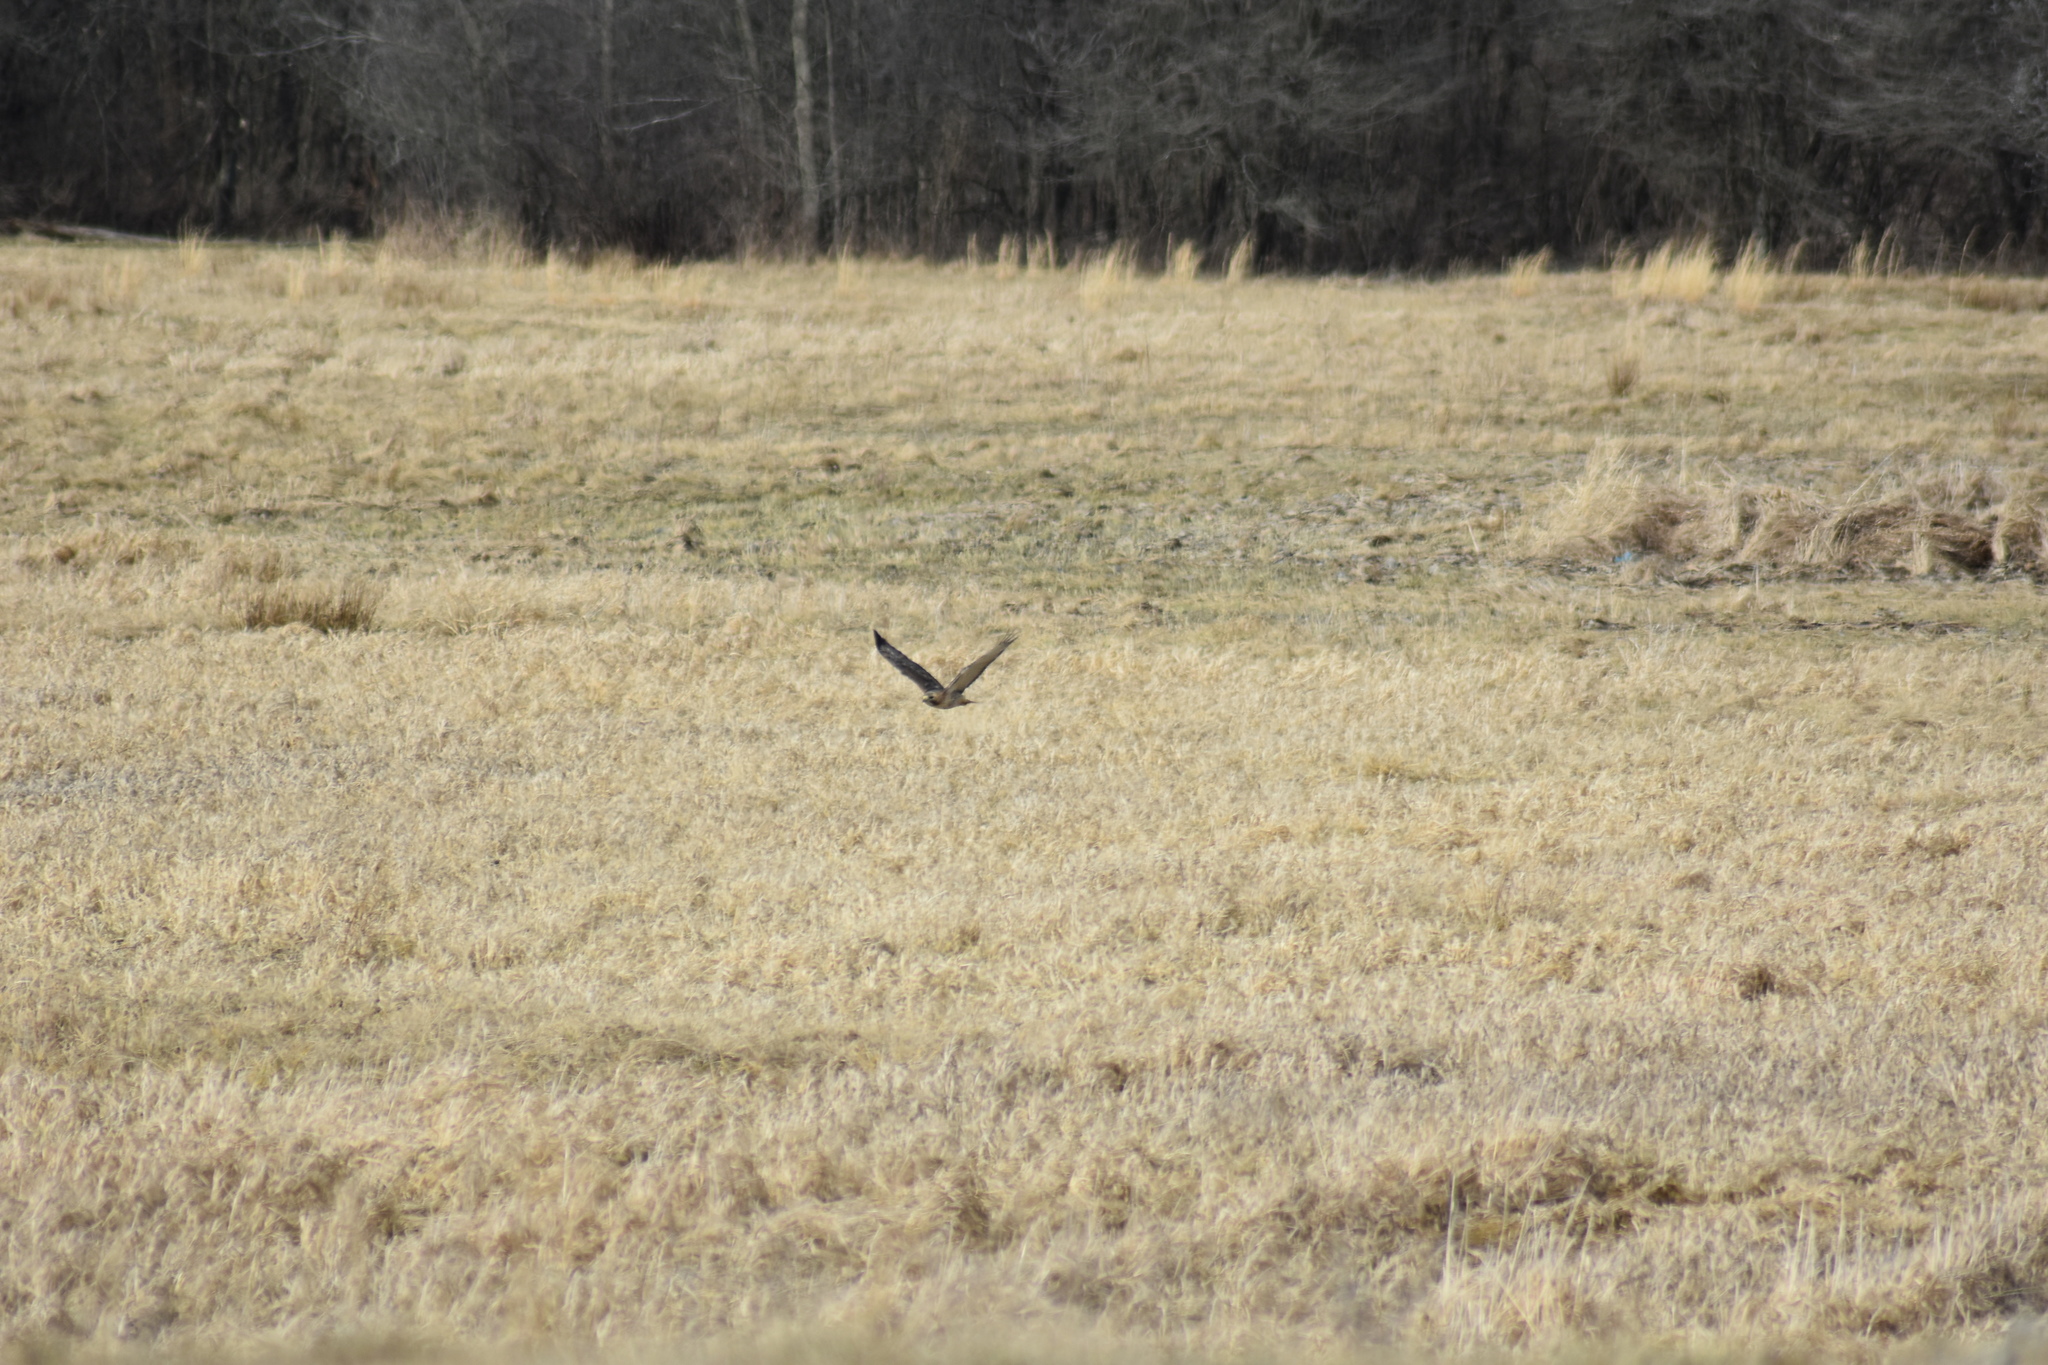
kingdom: Animalia
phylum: Chordata
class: Aves
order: Accipitriformes
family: Accipitridae
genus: Buteo
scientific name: Buteo jamaicensis
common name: Red-tailed hawk
